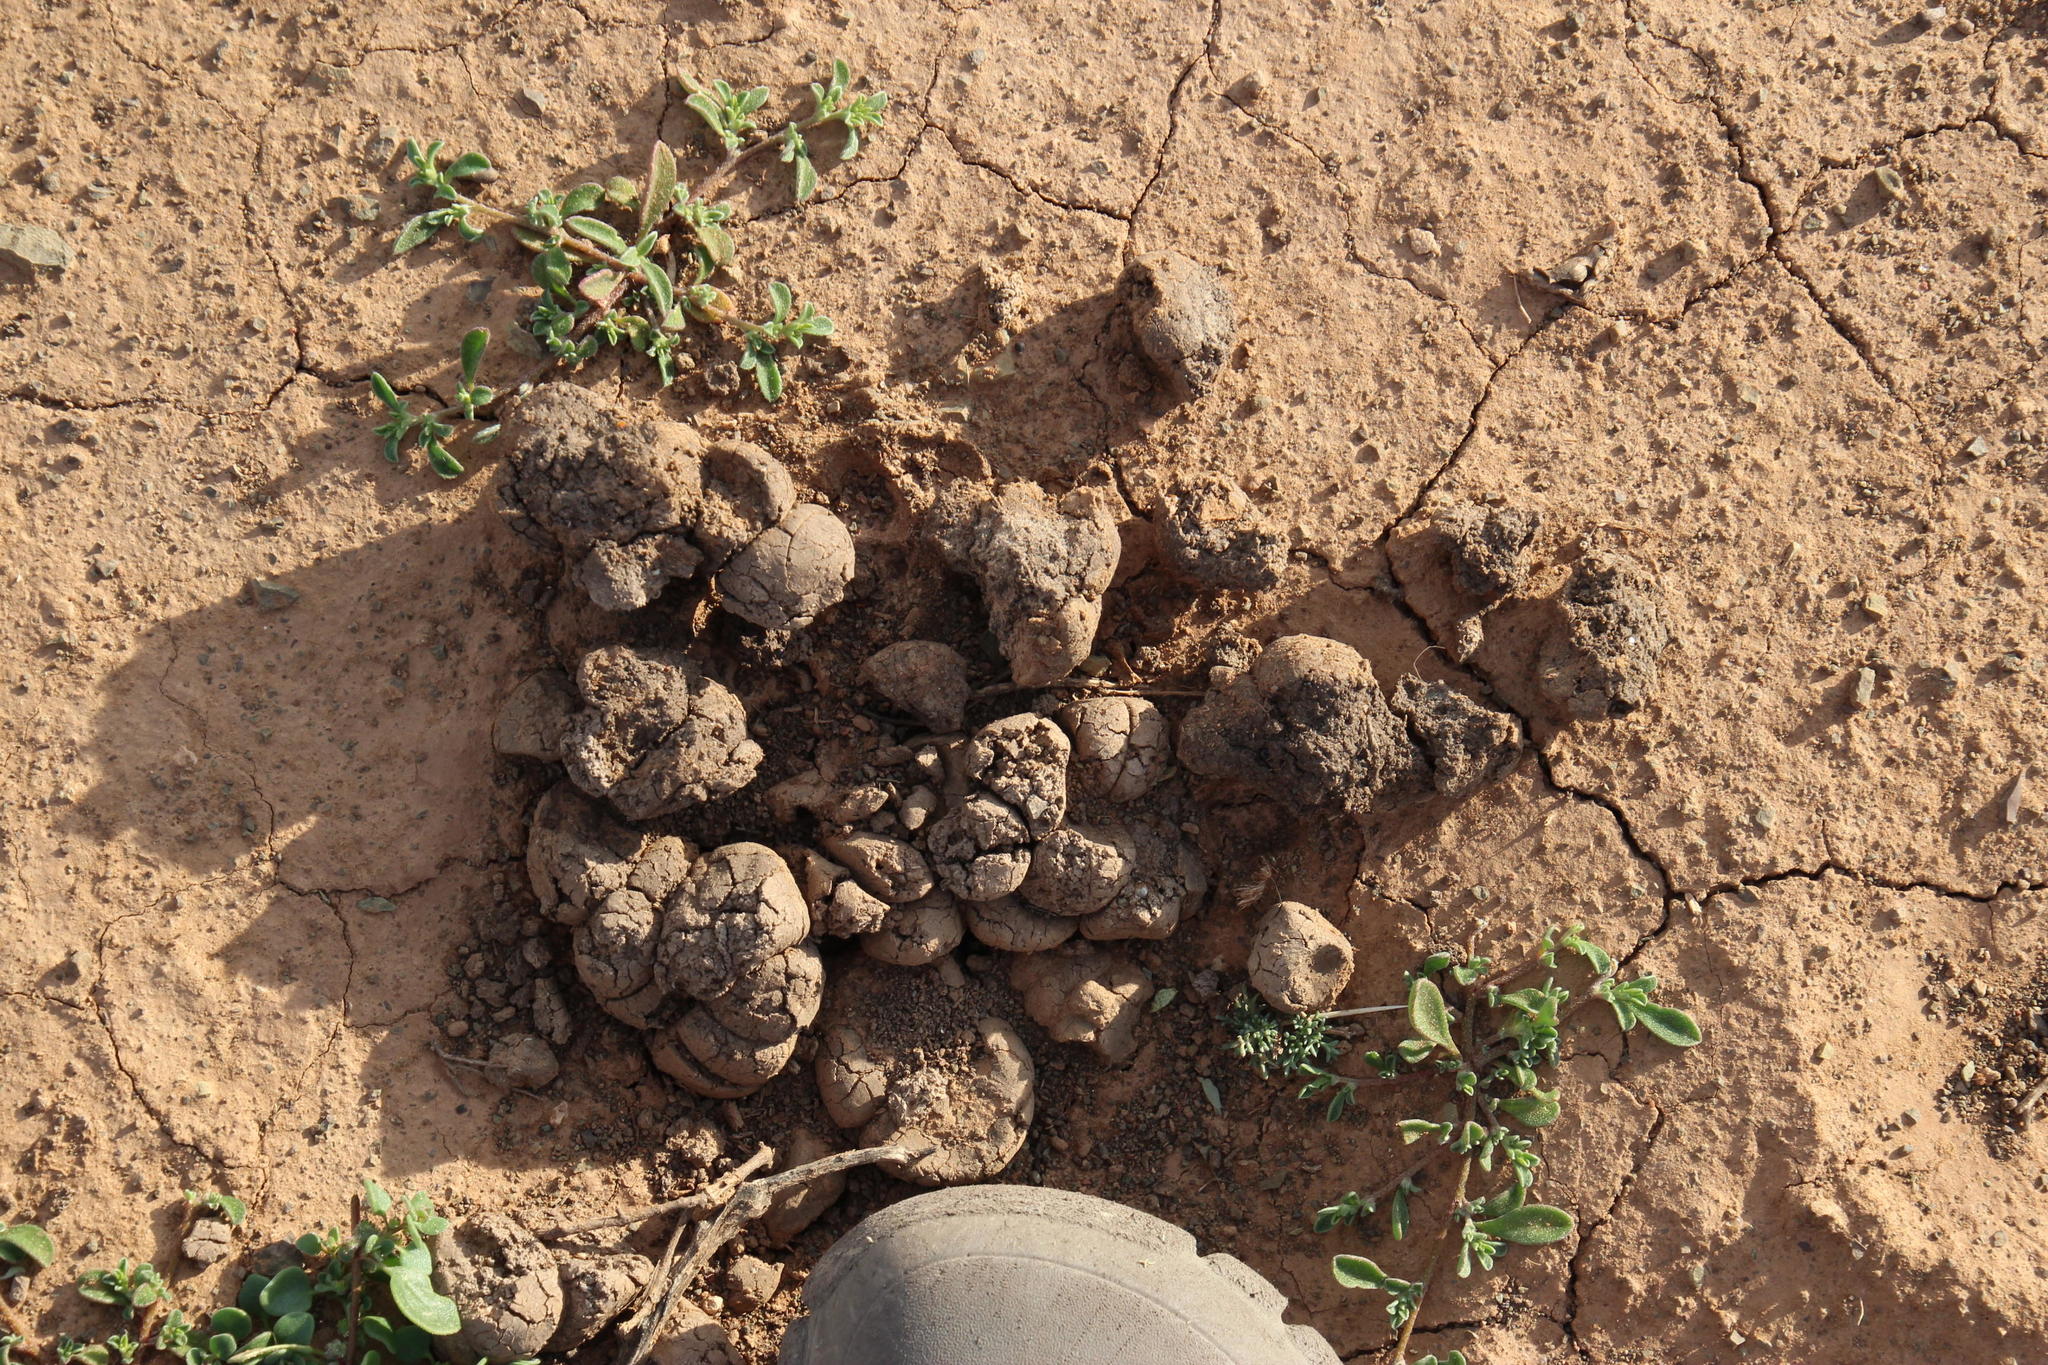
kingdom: Animalia
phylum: Chordata
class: Mammalia
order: Tubulidentata
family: Orycteropodidae
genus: Orycteropus
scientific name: Orycteropus afer
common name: Aardvark
